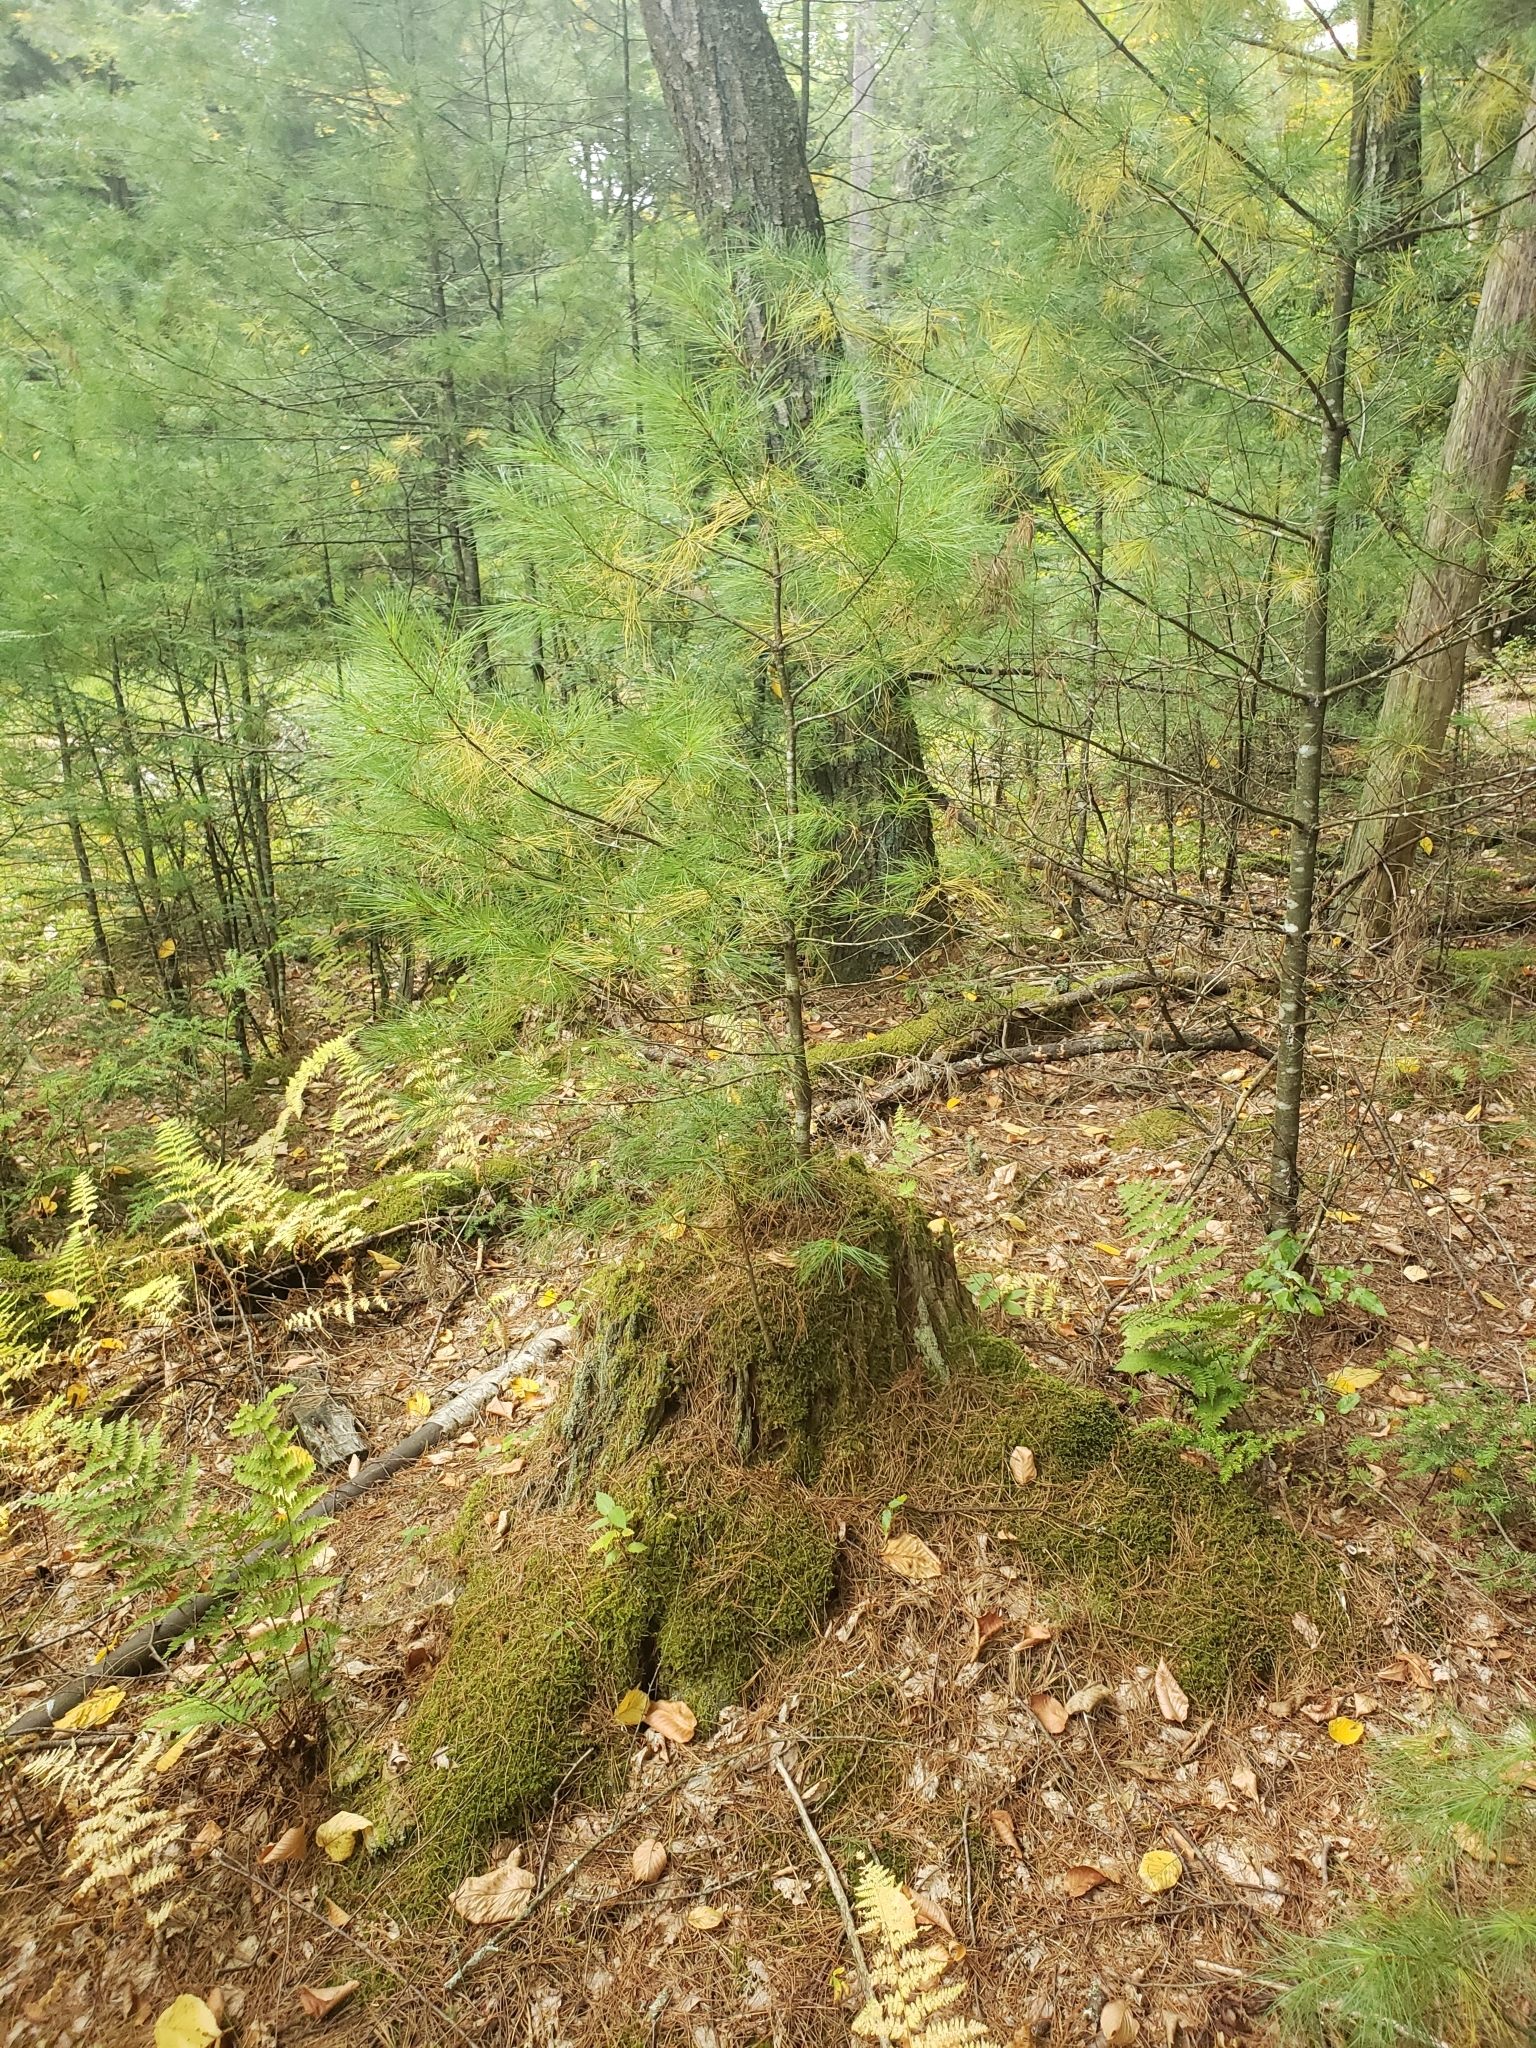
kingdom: Plantae
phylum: Tracheophyta
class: Pinopsida
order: Pinales
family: Pinaceae
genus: Pinus
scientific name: Pinus strobus
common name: Weymouth pine
